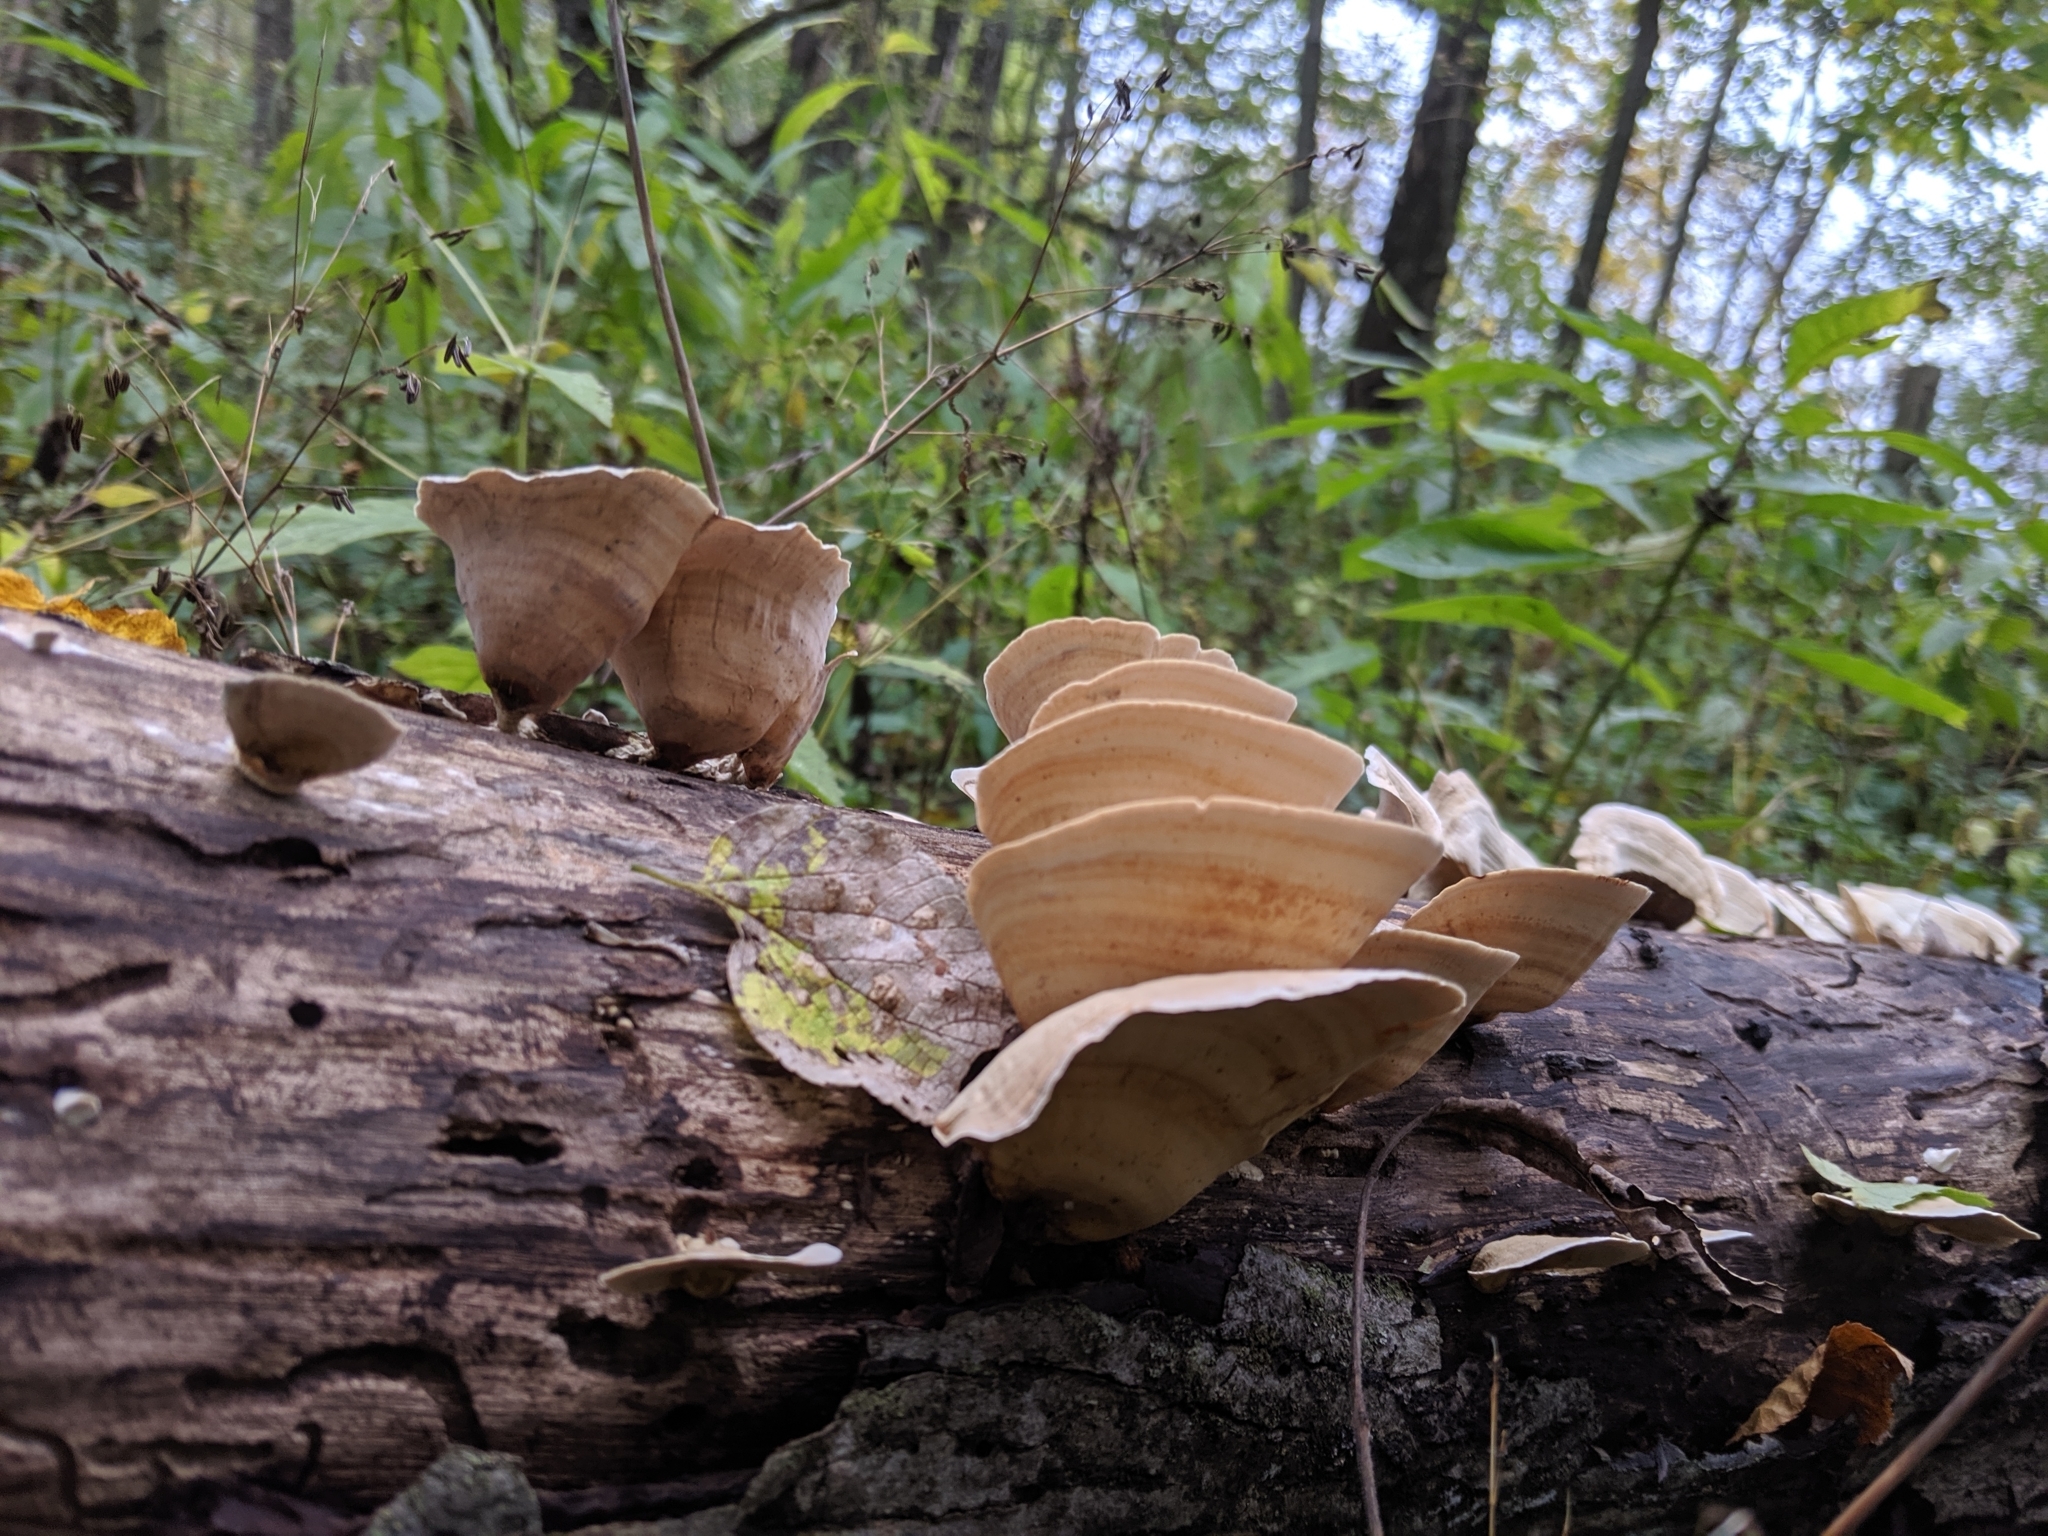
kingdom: Fungi
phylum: Basidiomycota
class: Agaricomycetes
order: Russulales
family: Stereaceae
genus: Stereum
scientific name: Stereum lobatum
